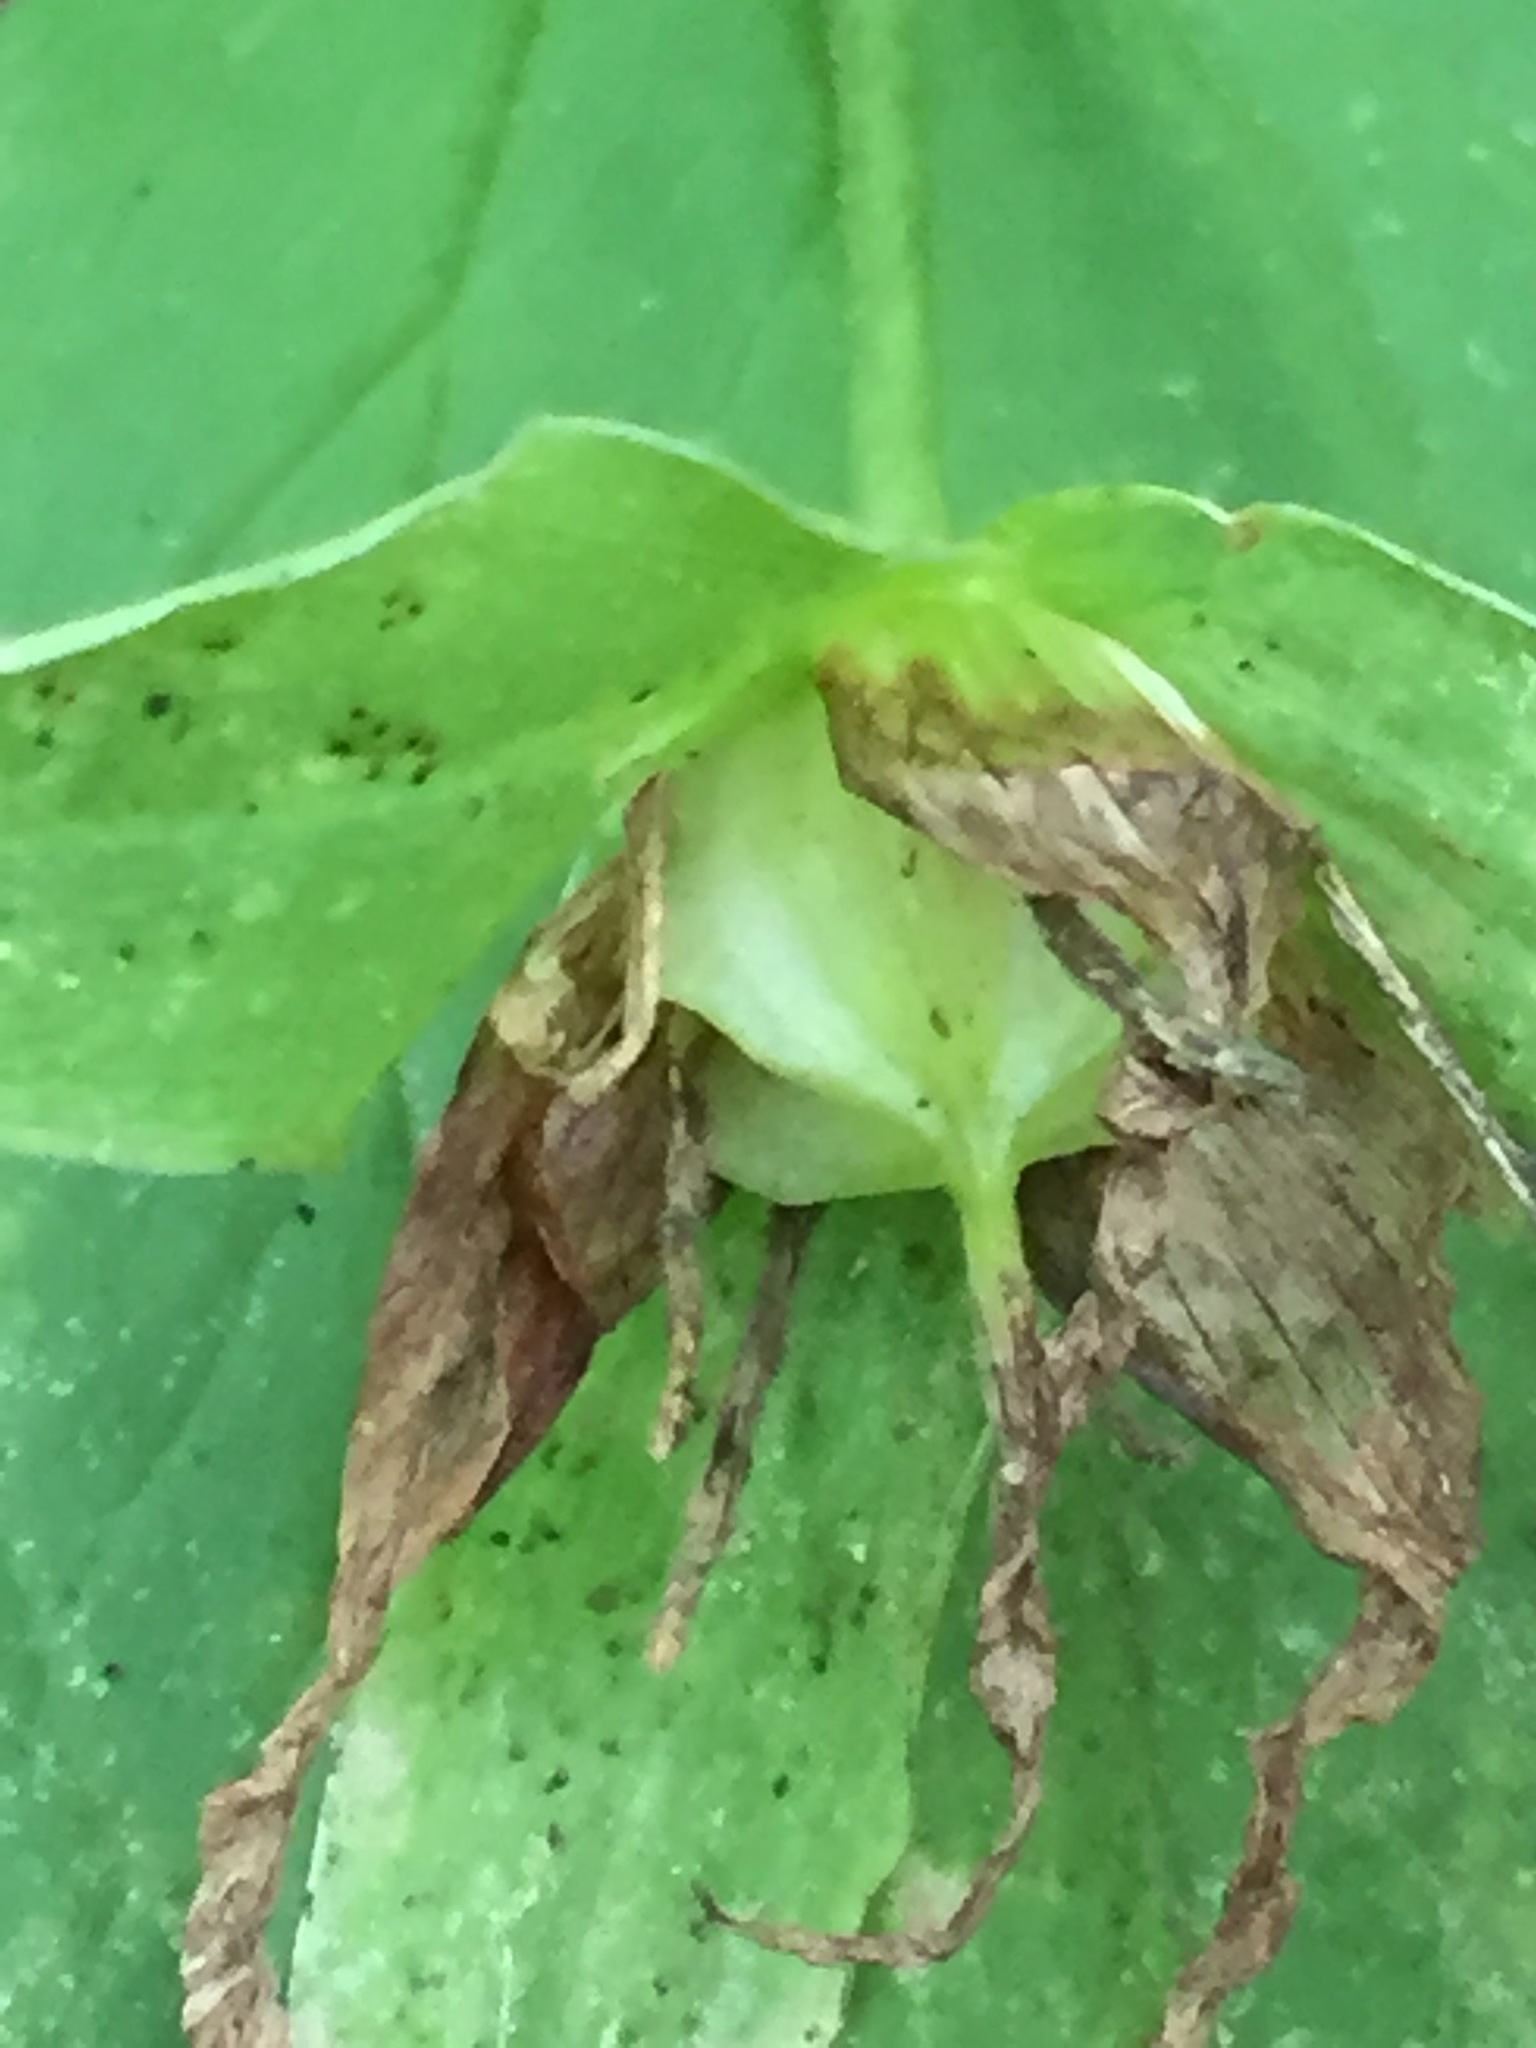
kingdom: Plantae
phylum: Tracheophyta
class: Liliopsida
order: Liliales
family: Melanthiaceae
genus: Trillium
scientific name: Trillium grandiflorum
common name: Great white trillium
